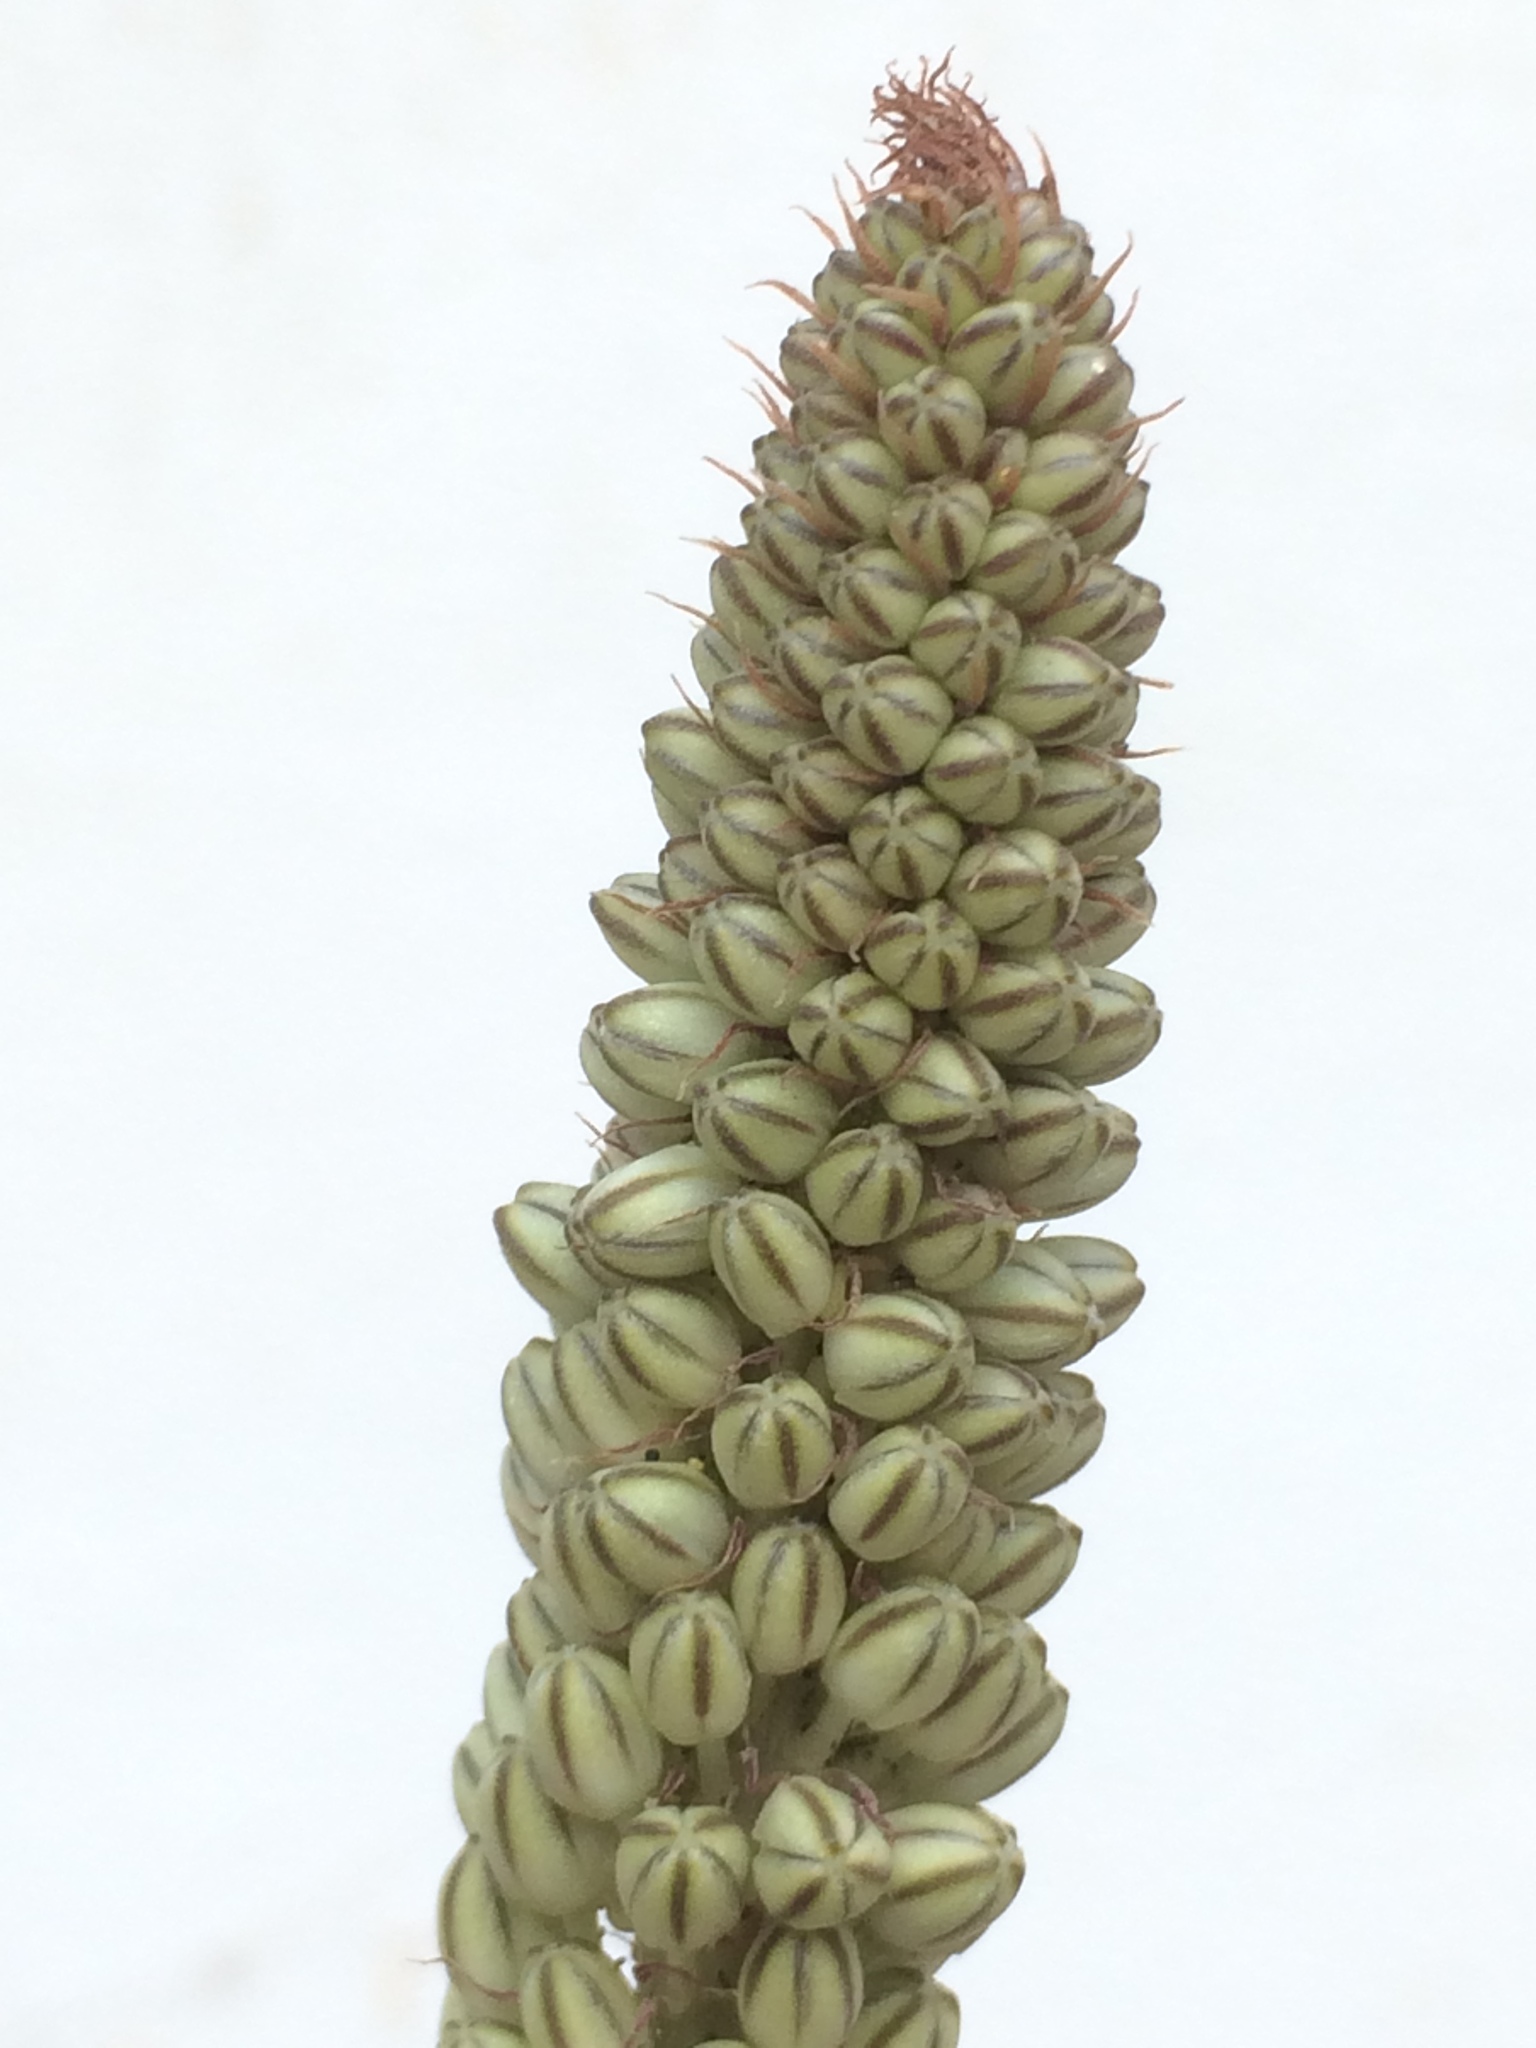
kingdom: Plantae
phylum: Tracheophyta
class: Liliopsida
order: Asparagales
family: Asparagaceae
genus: Drimia
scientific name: Drimia maritima
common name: Maritime squill
